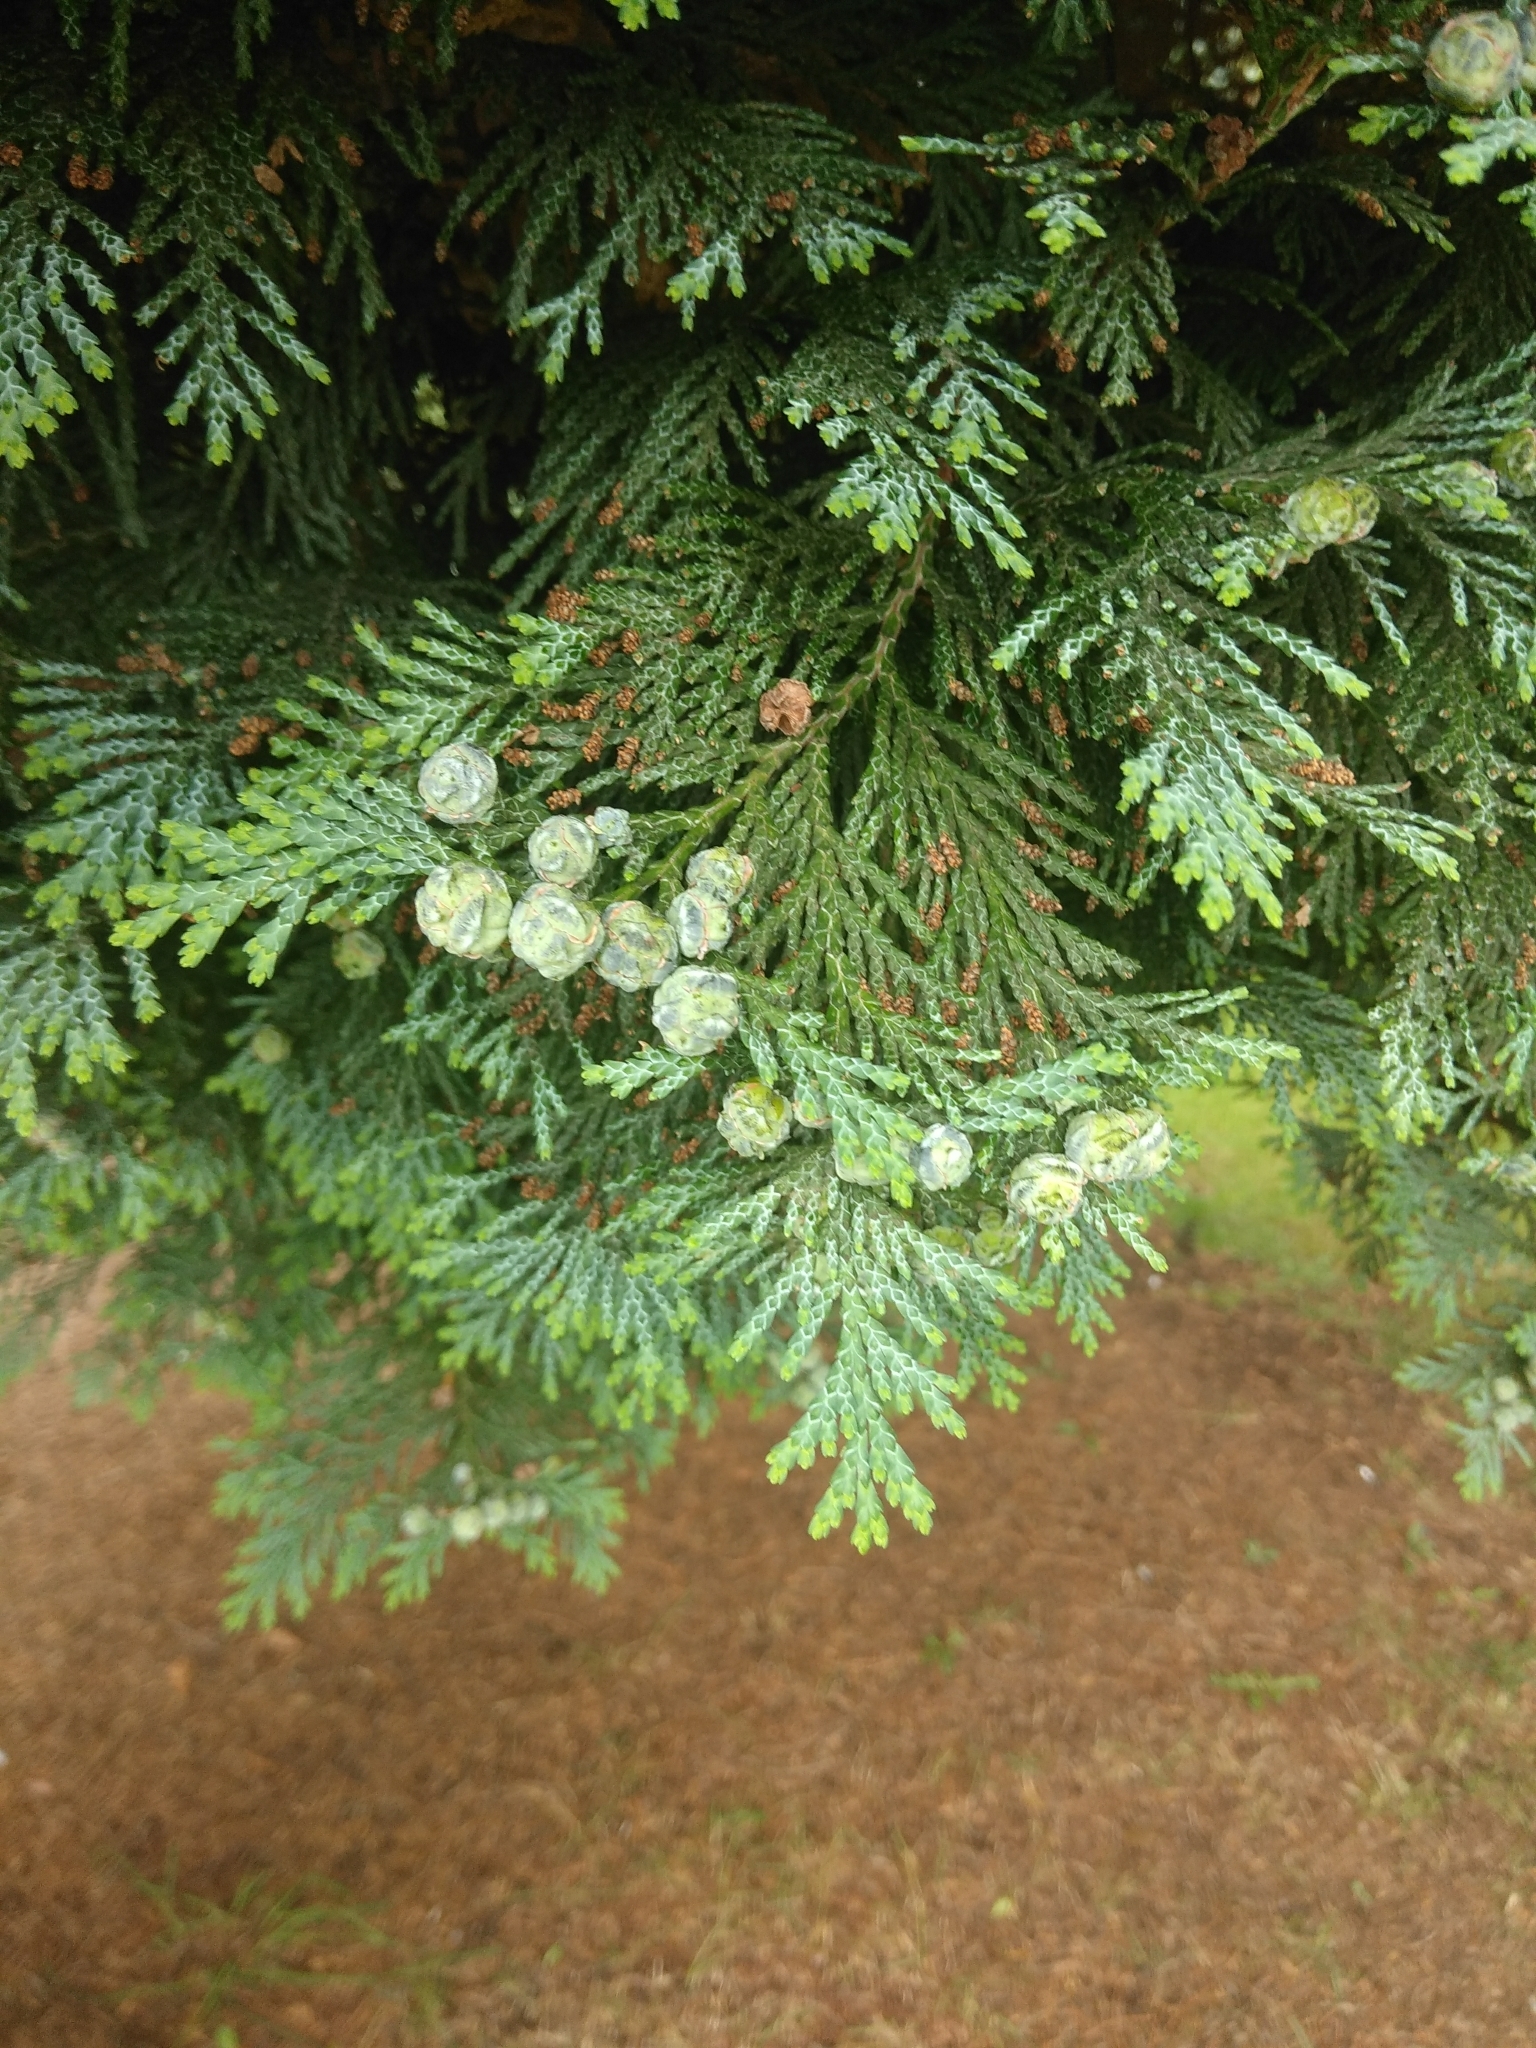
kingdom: Plantae
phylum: Tracheophyta
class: Pinopsida
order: Pinales
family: Cupressaceae
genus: Chamaecyparis
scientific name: Chamaecyparis lawsoniana
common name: Lawson's cypress
